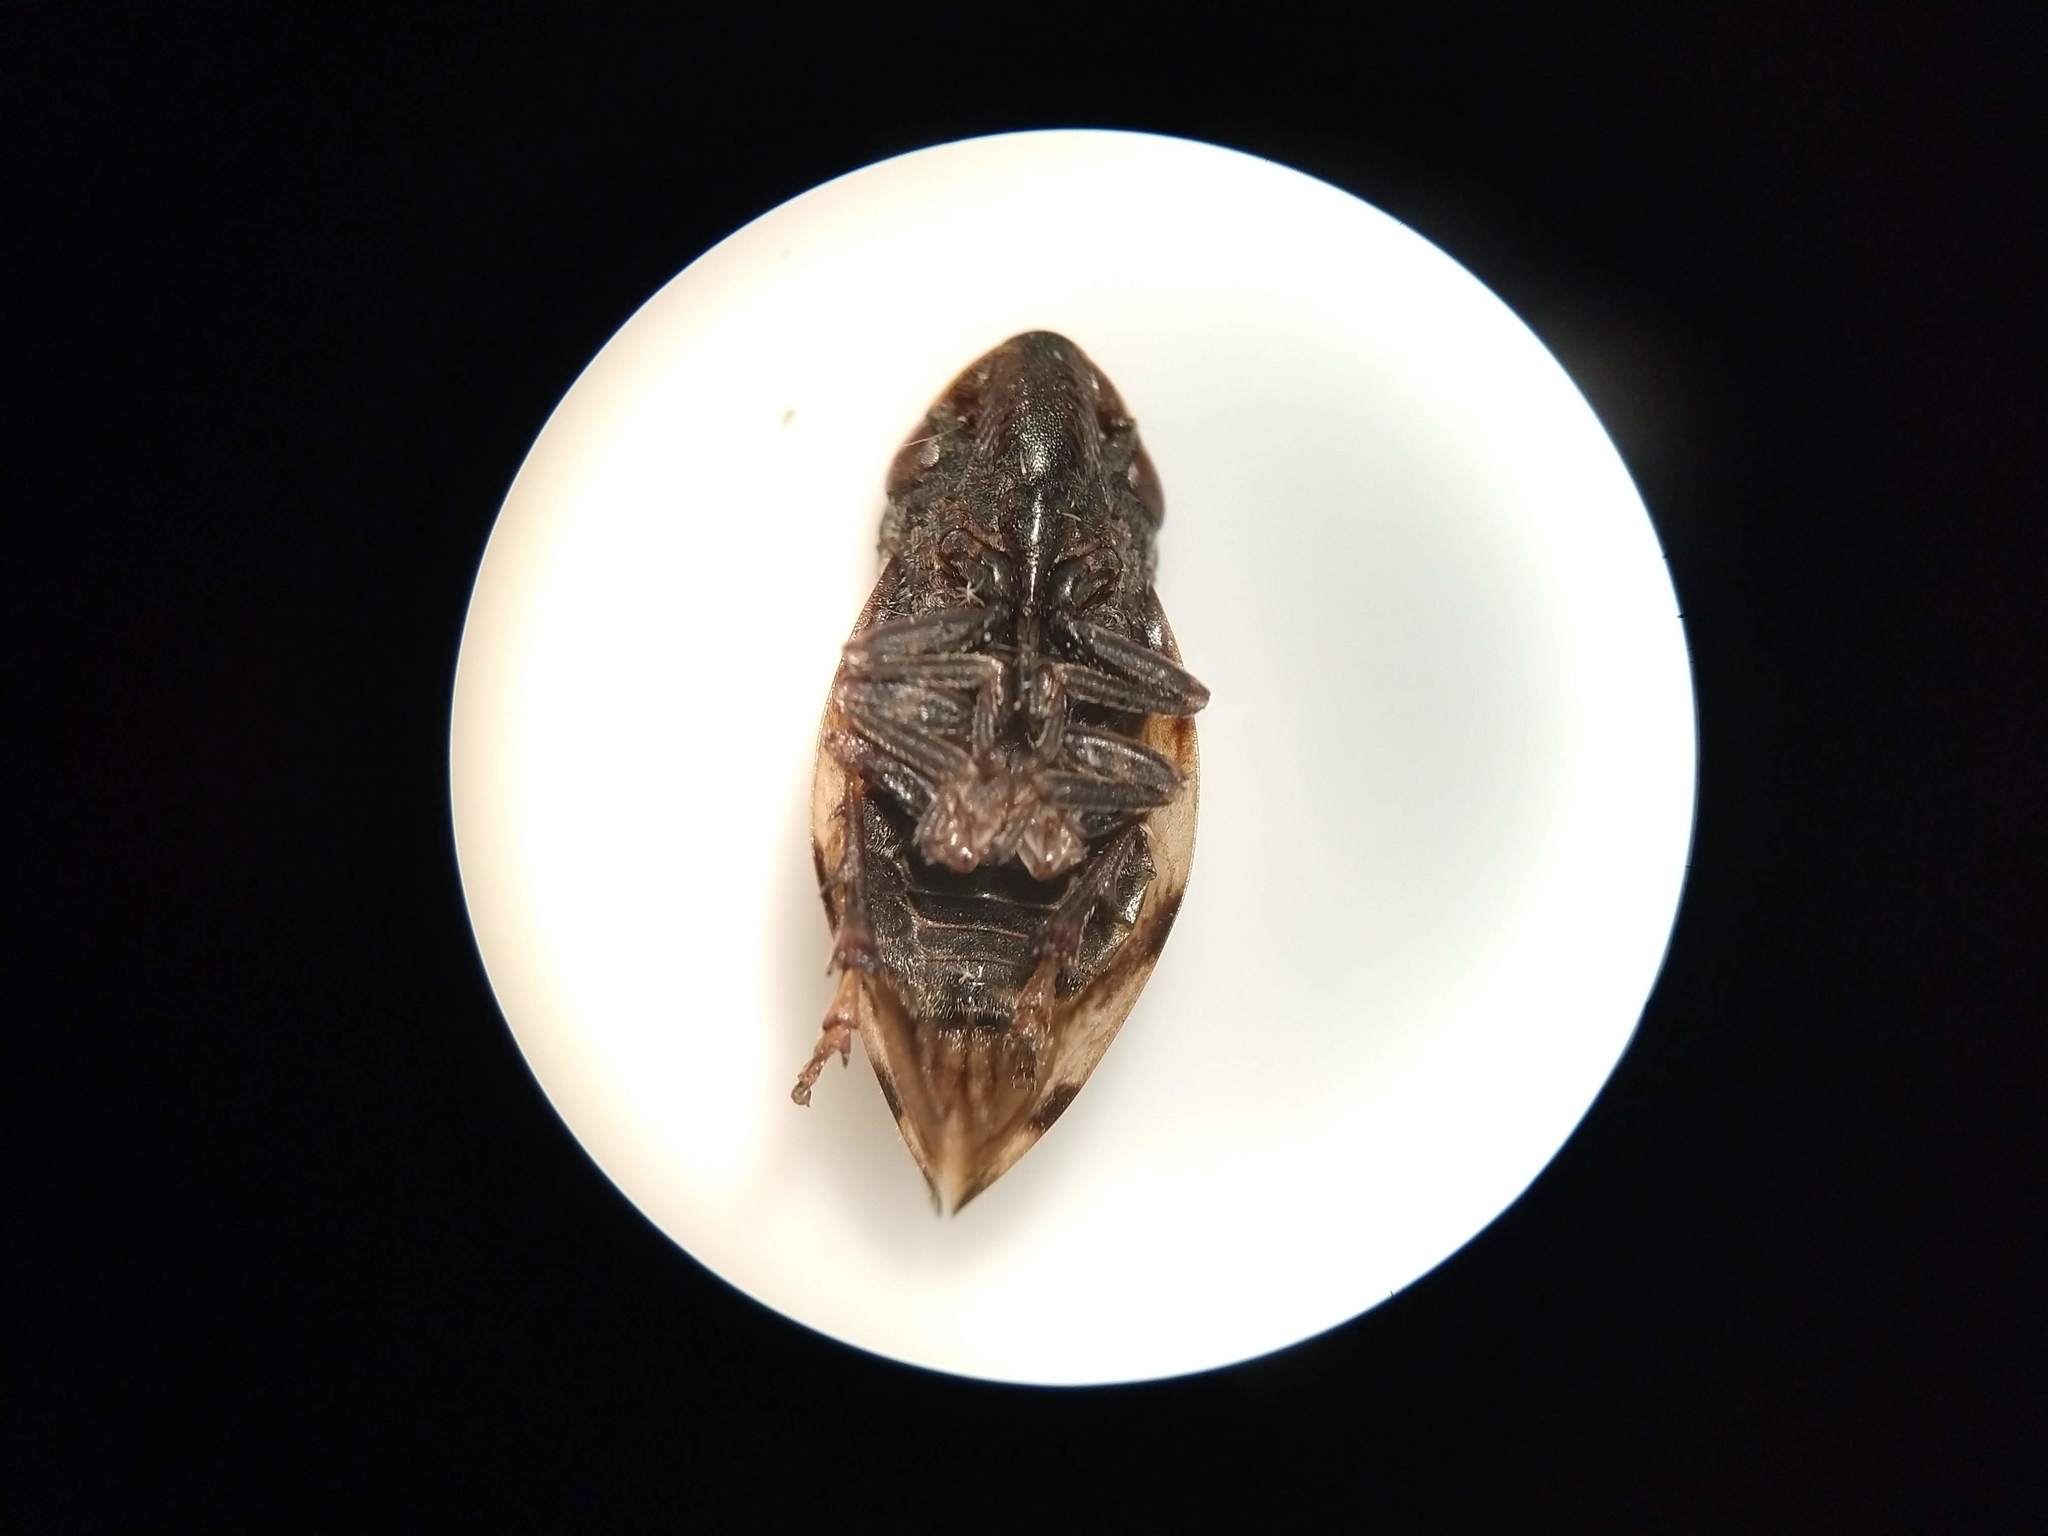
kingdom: Animalia
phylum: Arthropoda
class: Insecta
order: Hemiptera
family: Aphrophoridae
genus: Lepyronia
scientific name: Lepyronia quadrangularis
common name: Diamond-backed spittlebug
